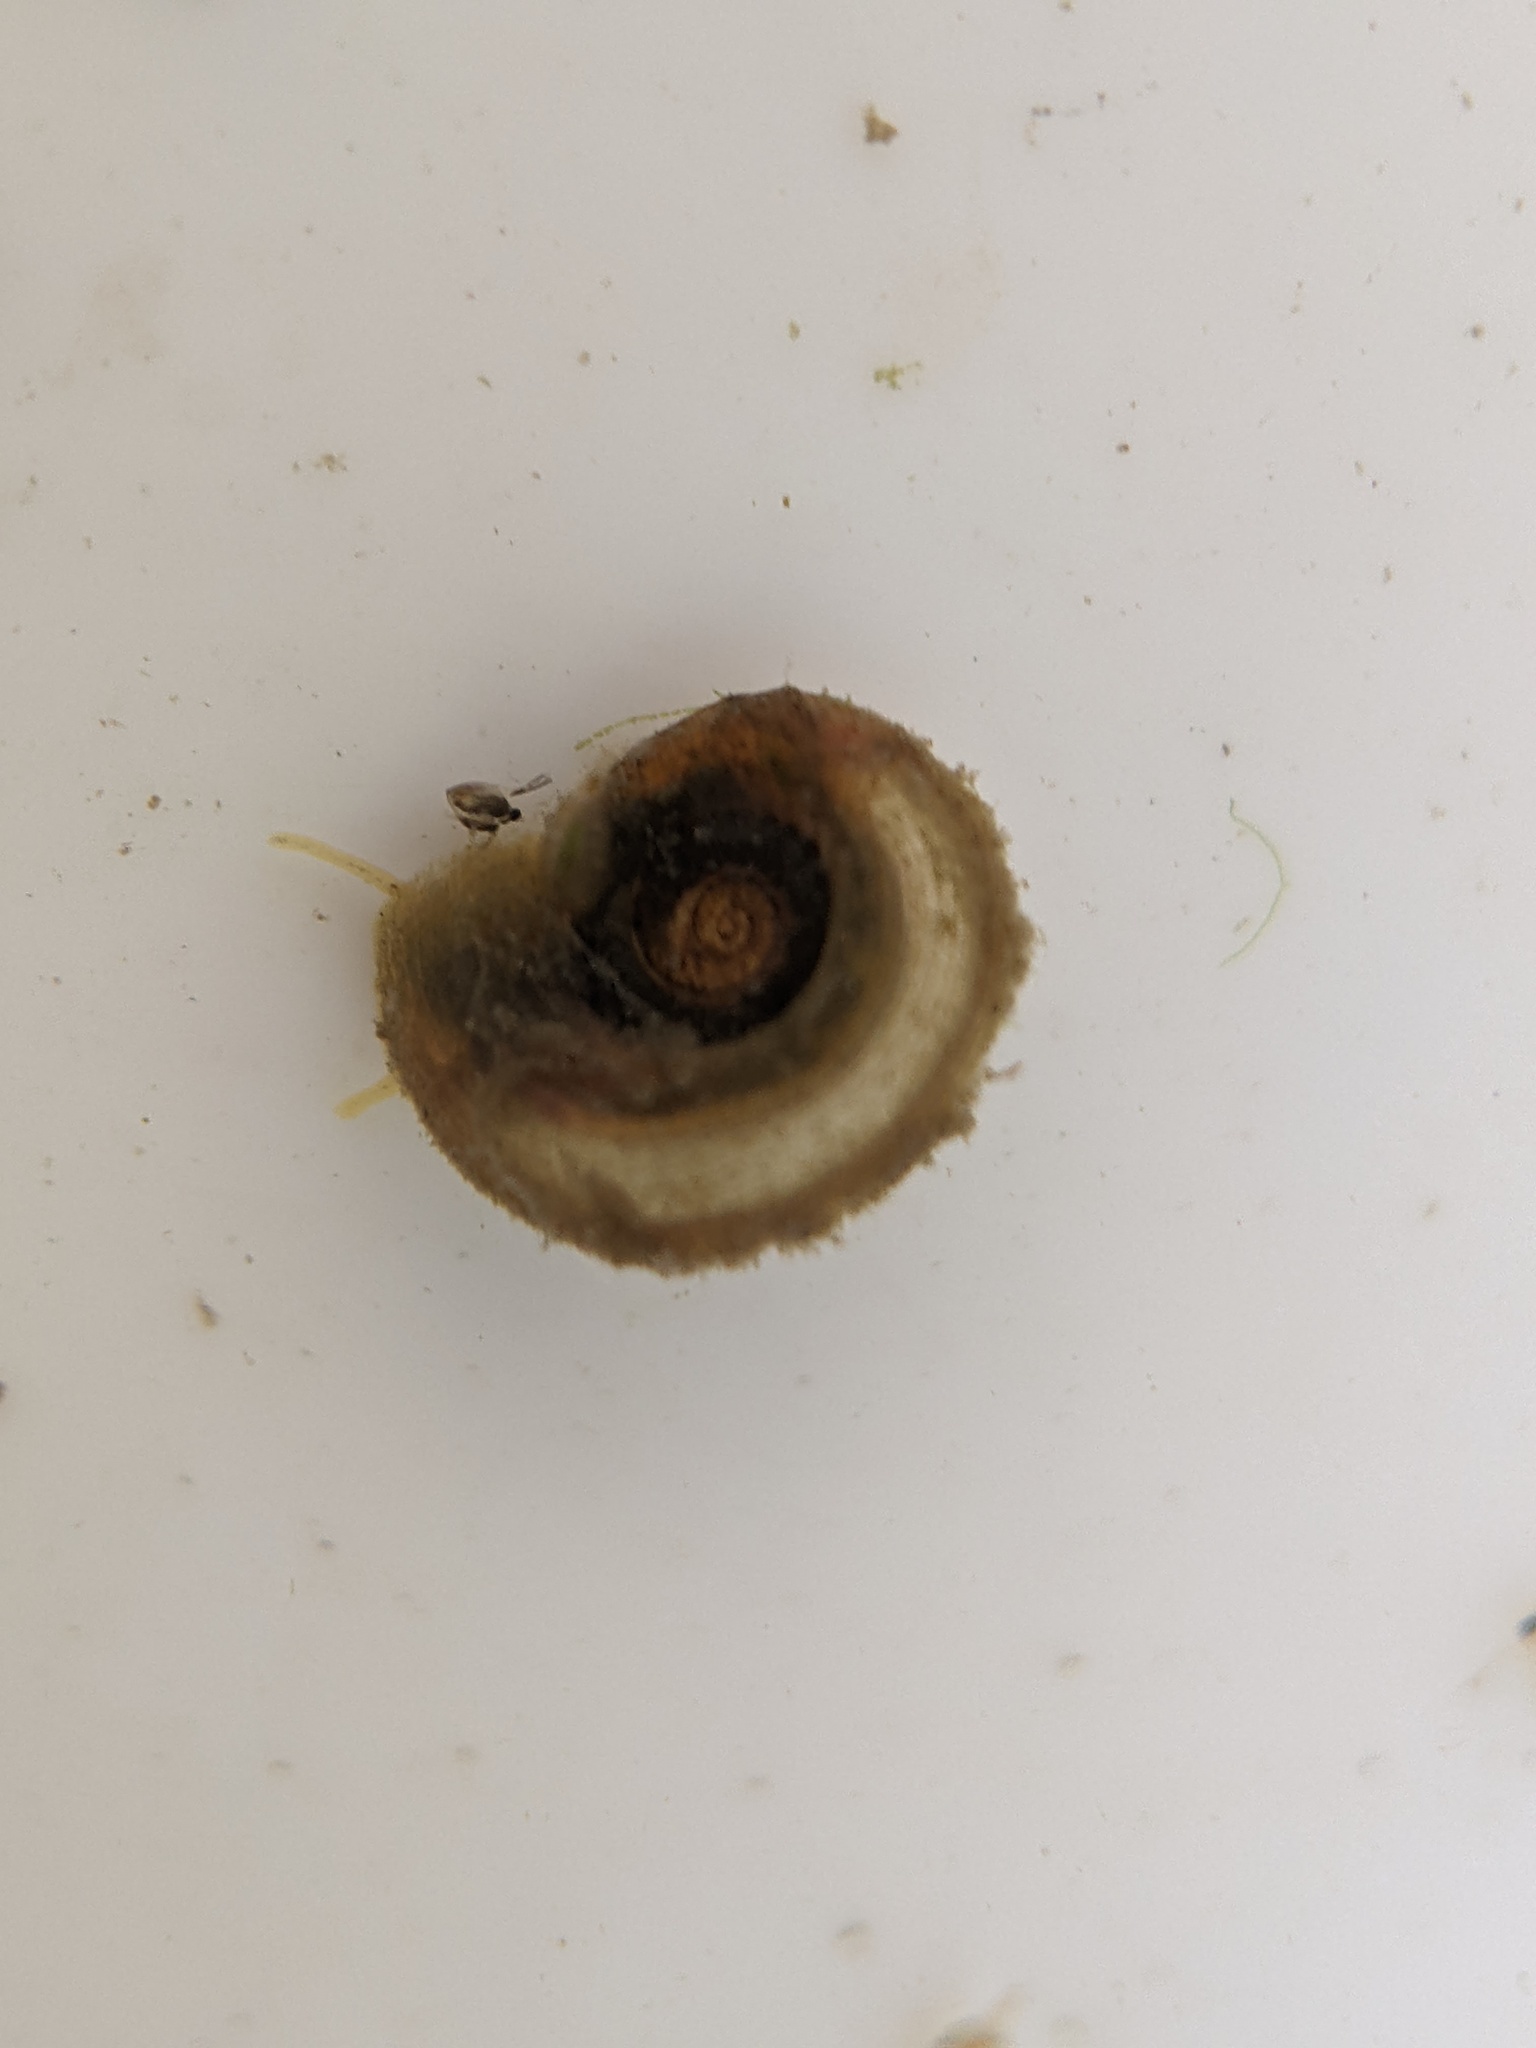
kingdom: Animalia
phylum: Mollusca
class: Gastropoda
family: Planorbidae
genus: Gyraulus
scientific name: Gyraulus albus
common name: White ramshorn
